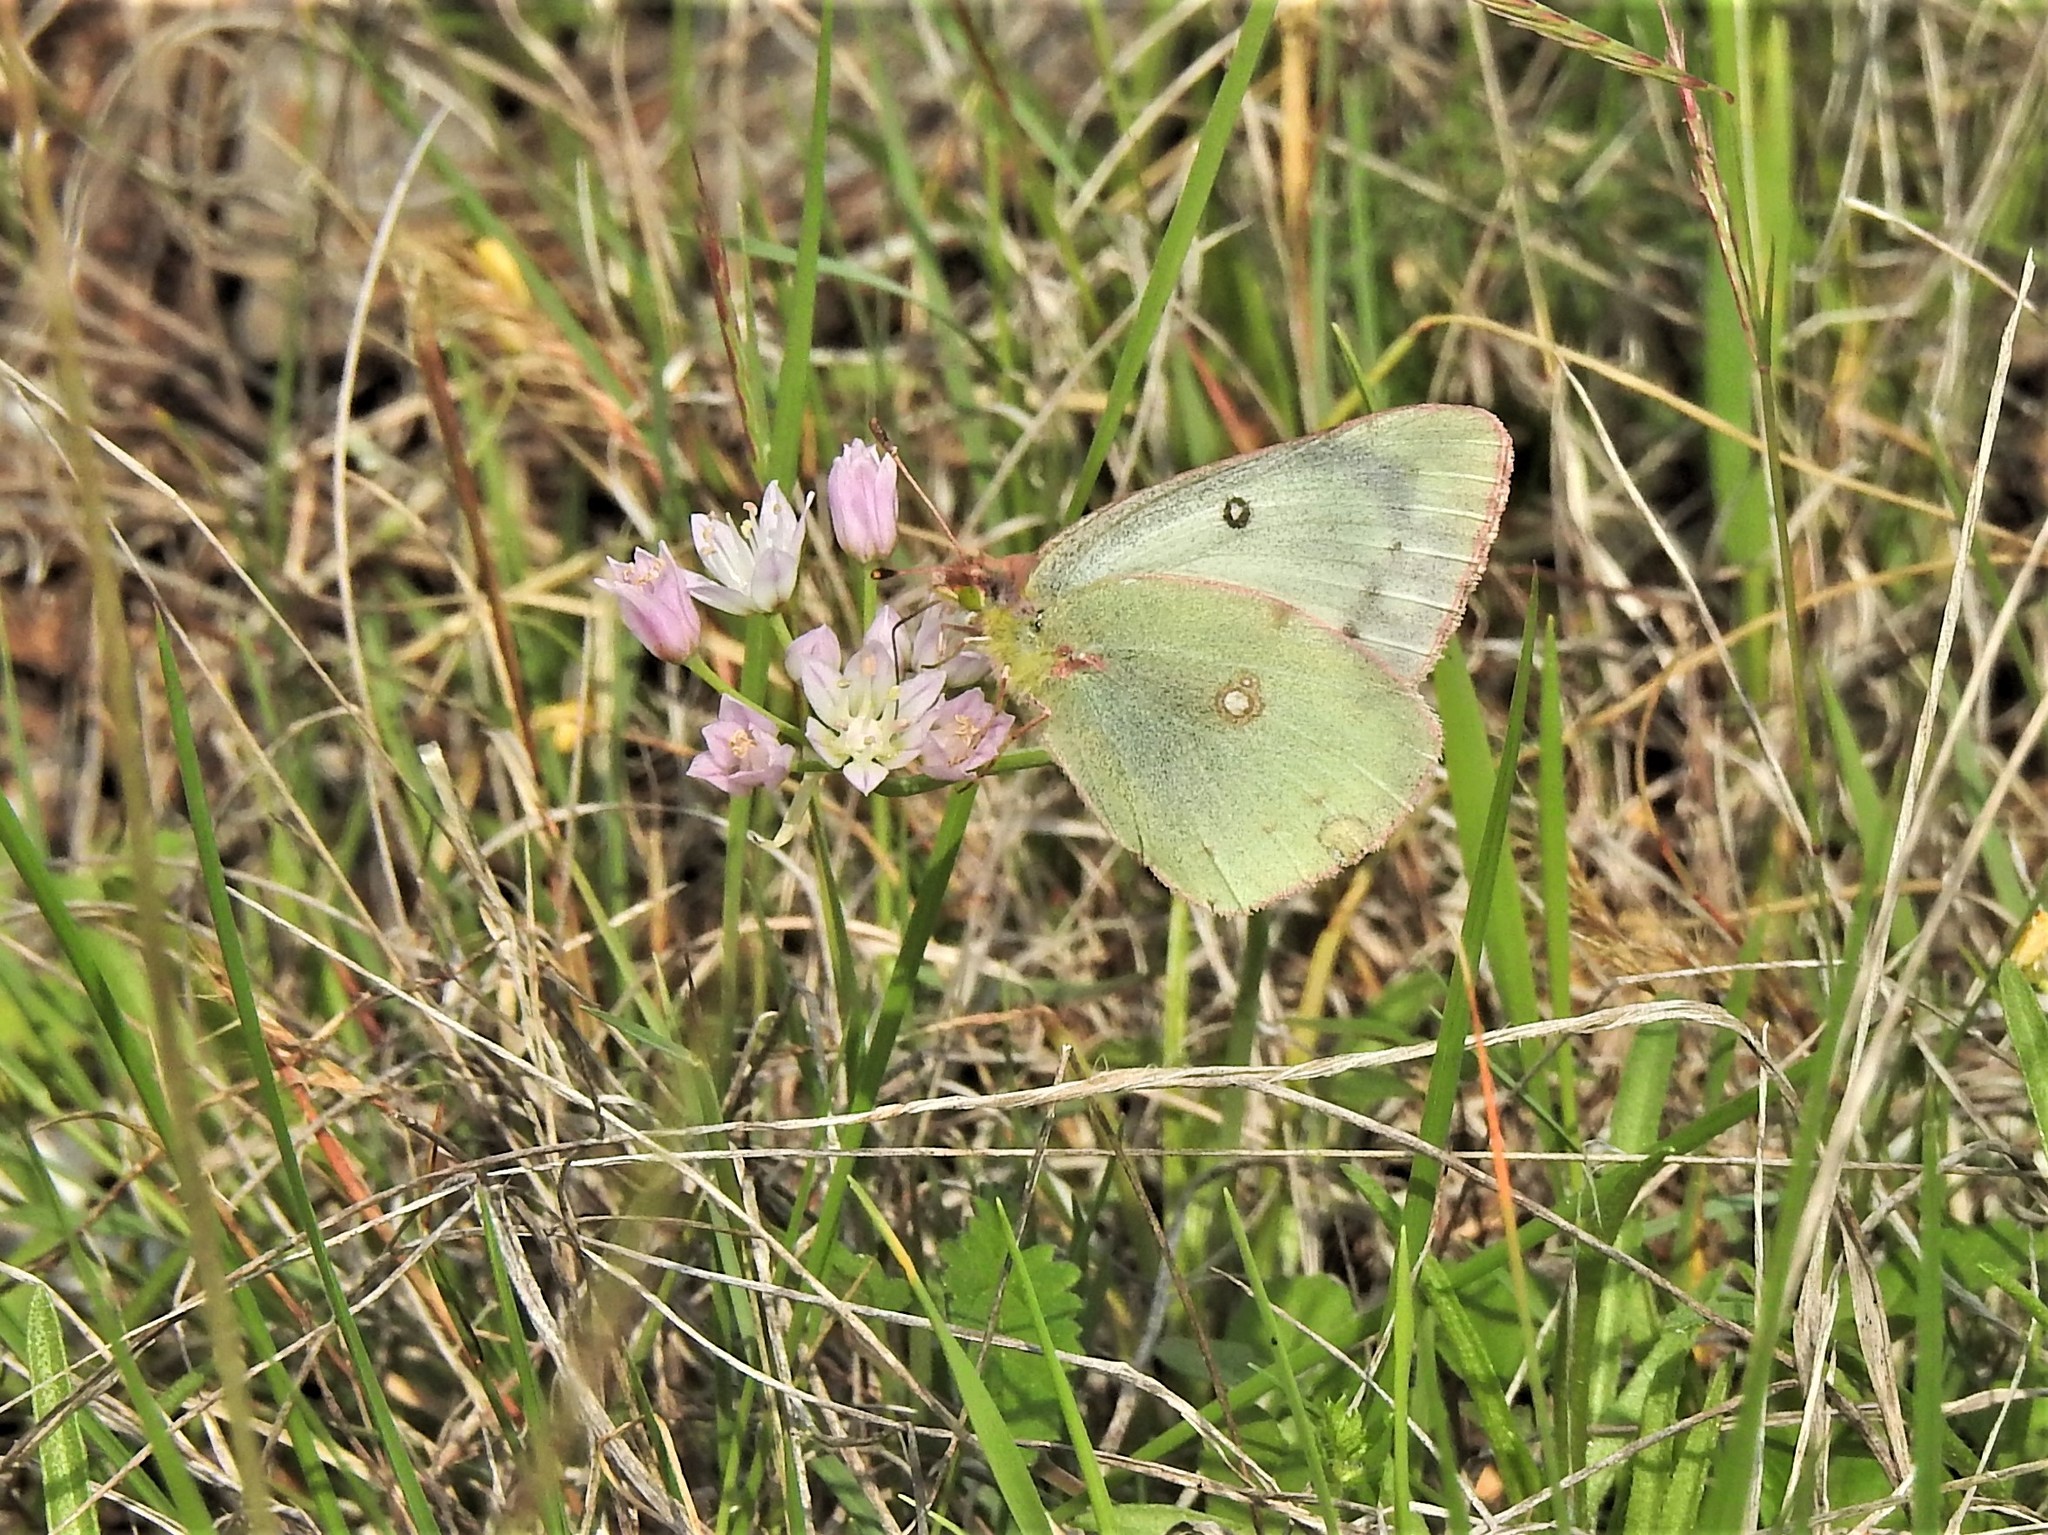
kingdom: Animalia
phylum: Arthropoda
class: Insecta
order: Lepidoptera
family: Pieridae
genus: Colias
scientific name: Colias eurytheme
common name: Alfalfa butterfly
